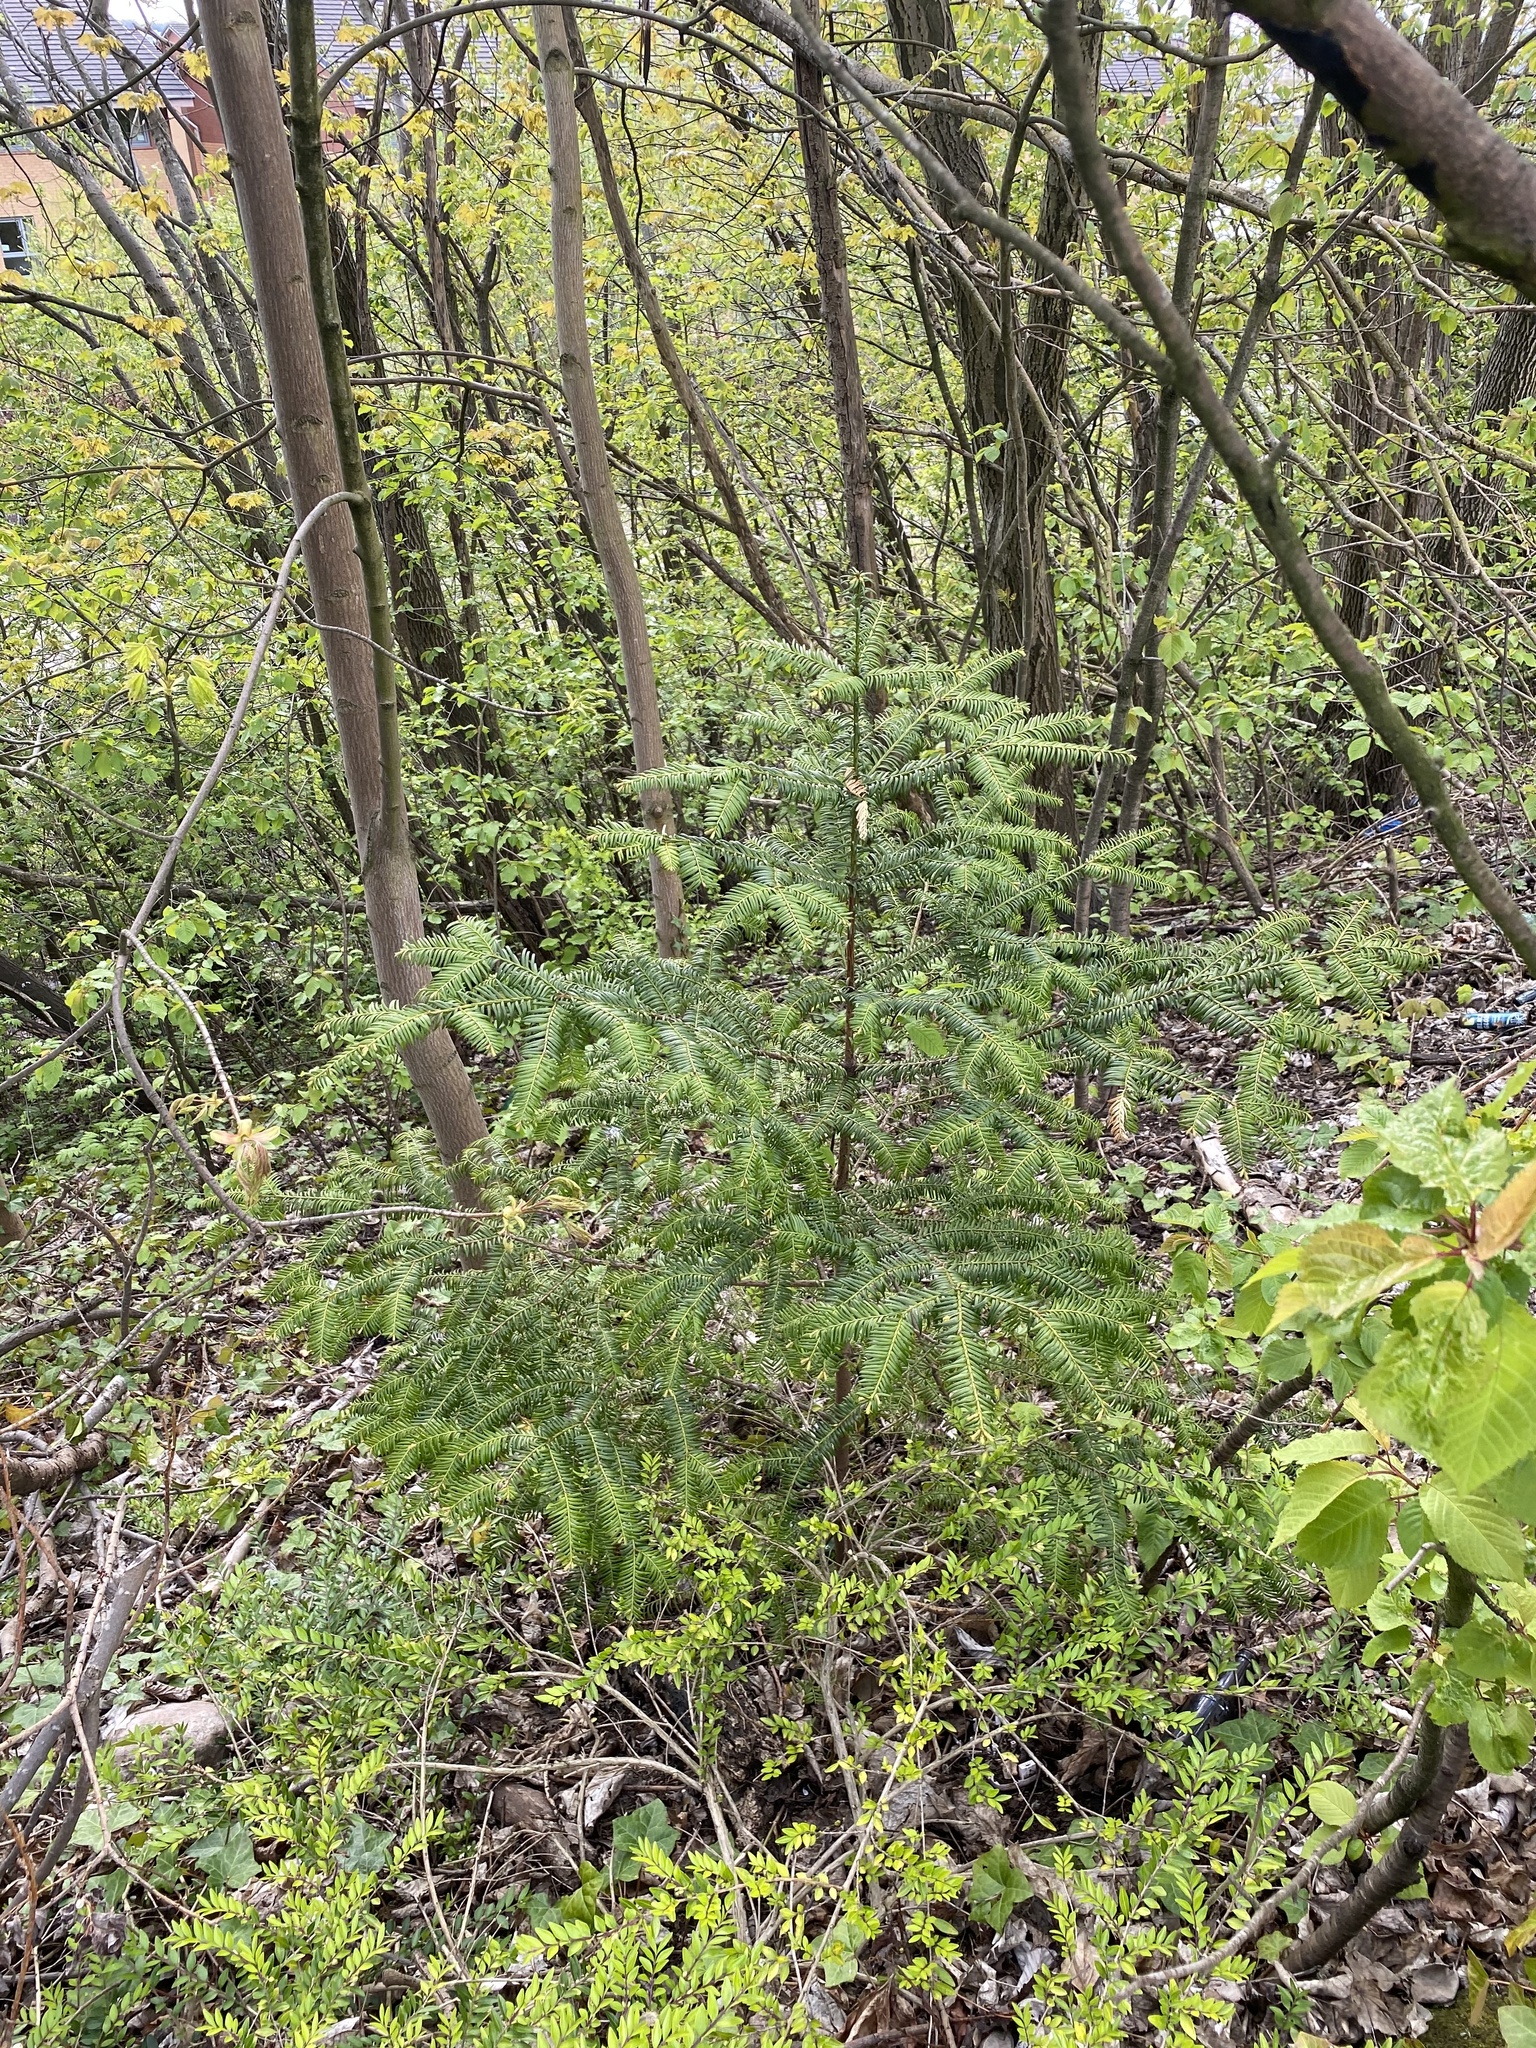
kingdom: Plantae
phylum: Tracheophyta
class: Pinopsida
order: Pinales
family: Taxaceae
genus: Taxus
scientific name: Taxus baccata
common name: Yew
